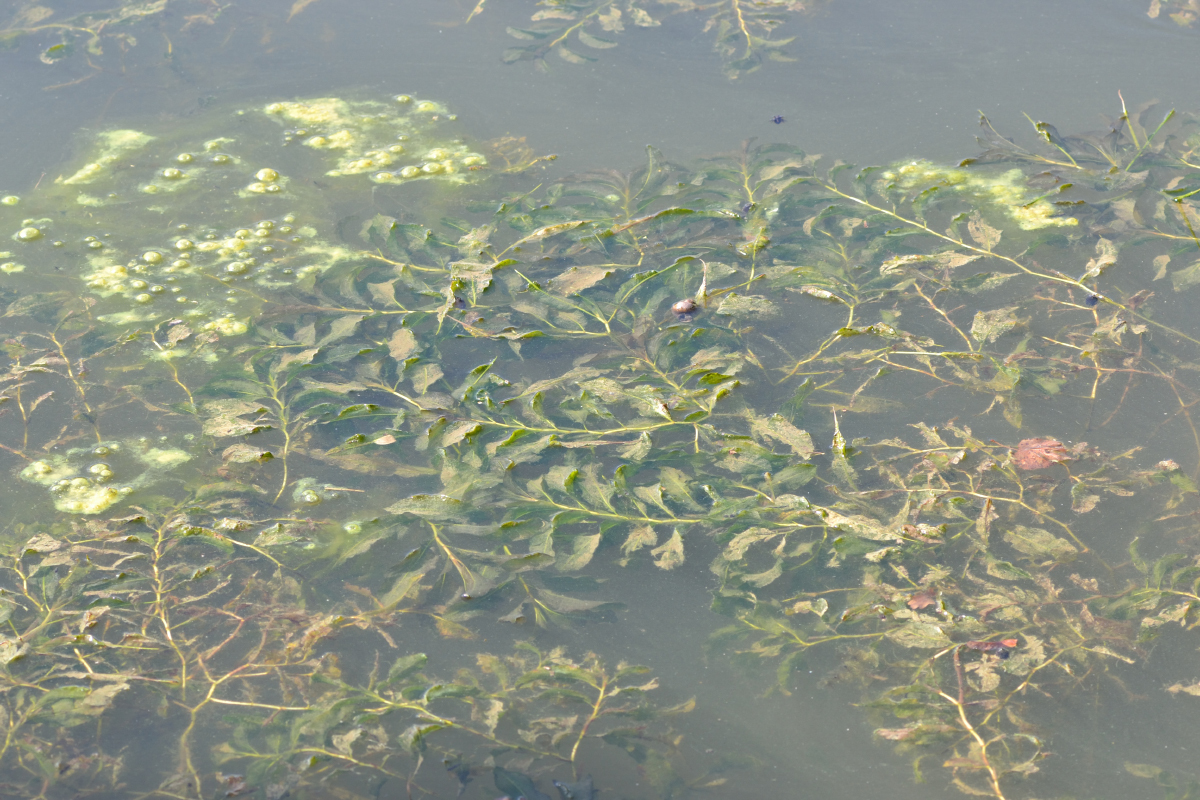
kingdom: Plantae
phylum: Tracheophyta
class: Liliopsida
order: Alismatales
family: Potamogetonaceae
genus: Potamogeton
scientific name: Potamogeton lucens
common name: Shining pondweed
